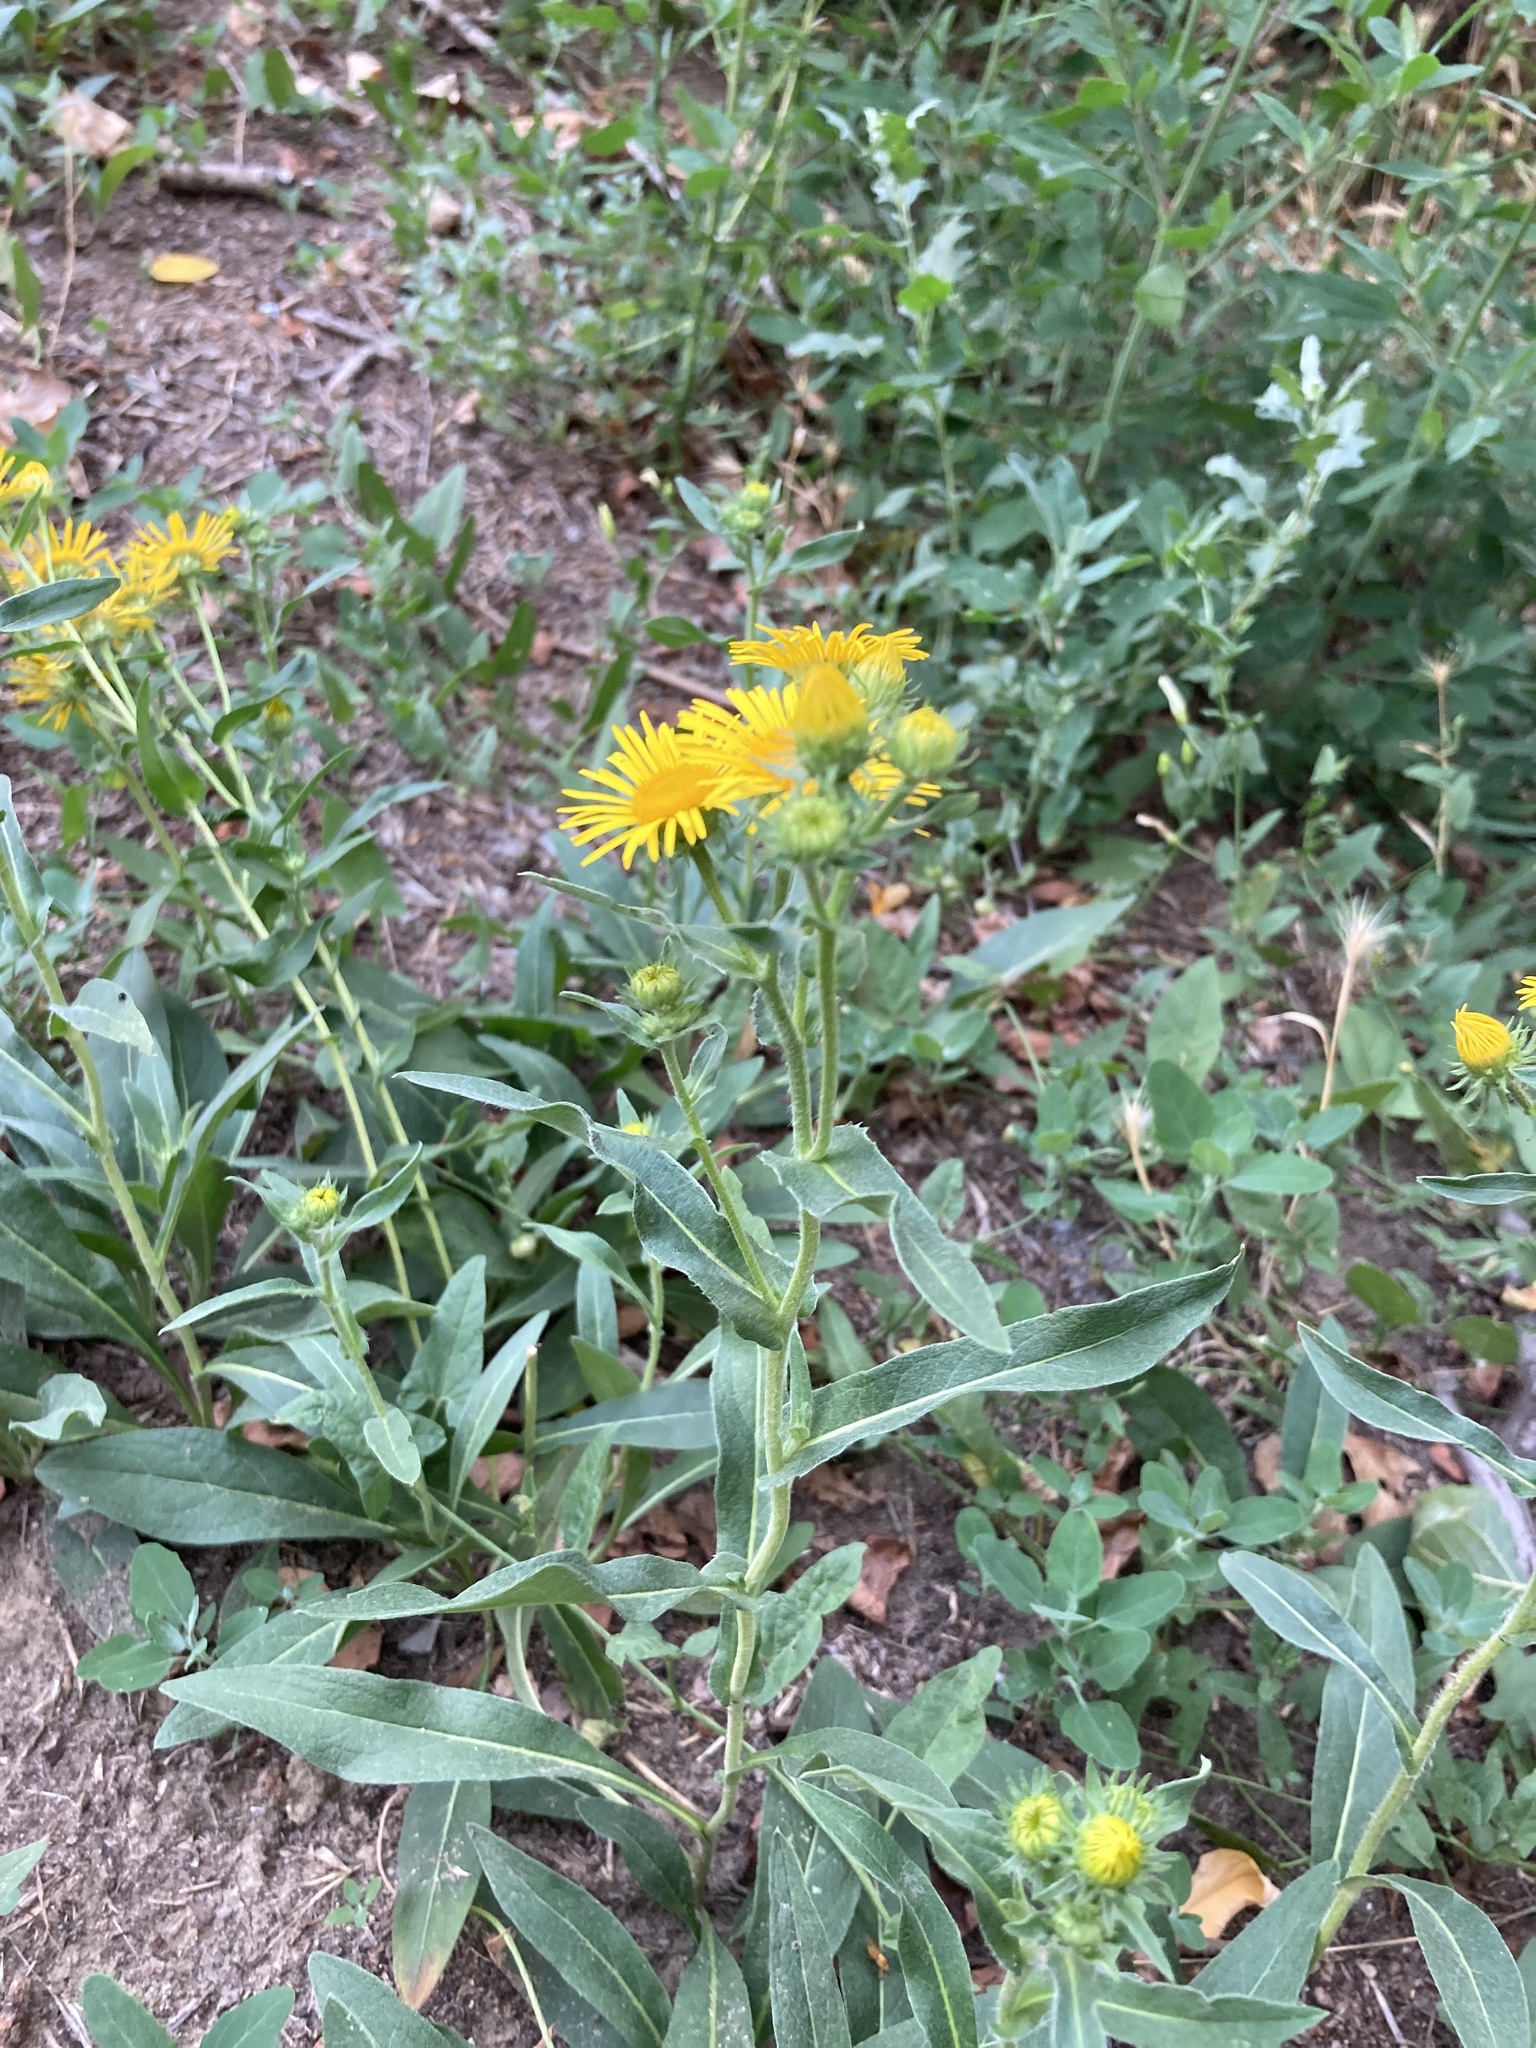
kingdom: Plantae
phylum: Tracheophyta
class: Magnoliopsida
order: Asterales
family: Asteraceae
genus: Pentanema
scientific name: Pentanema britannicum
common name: British elecampane
